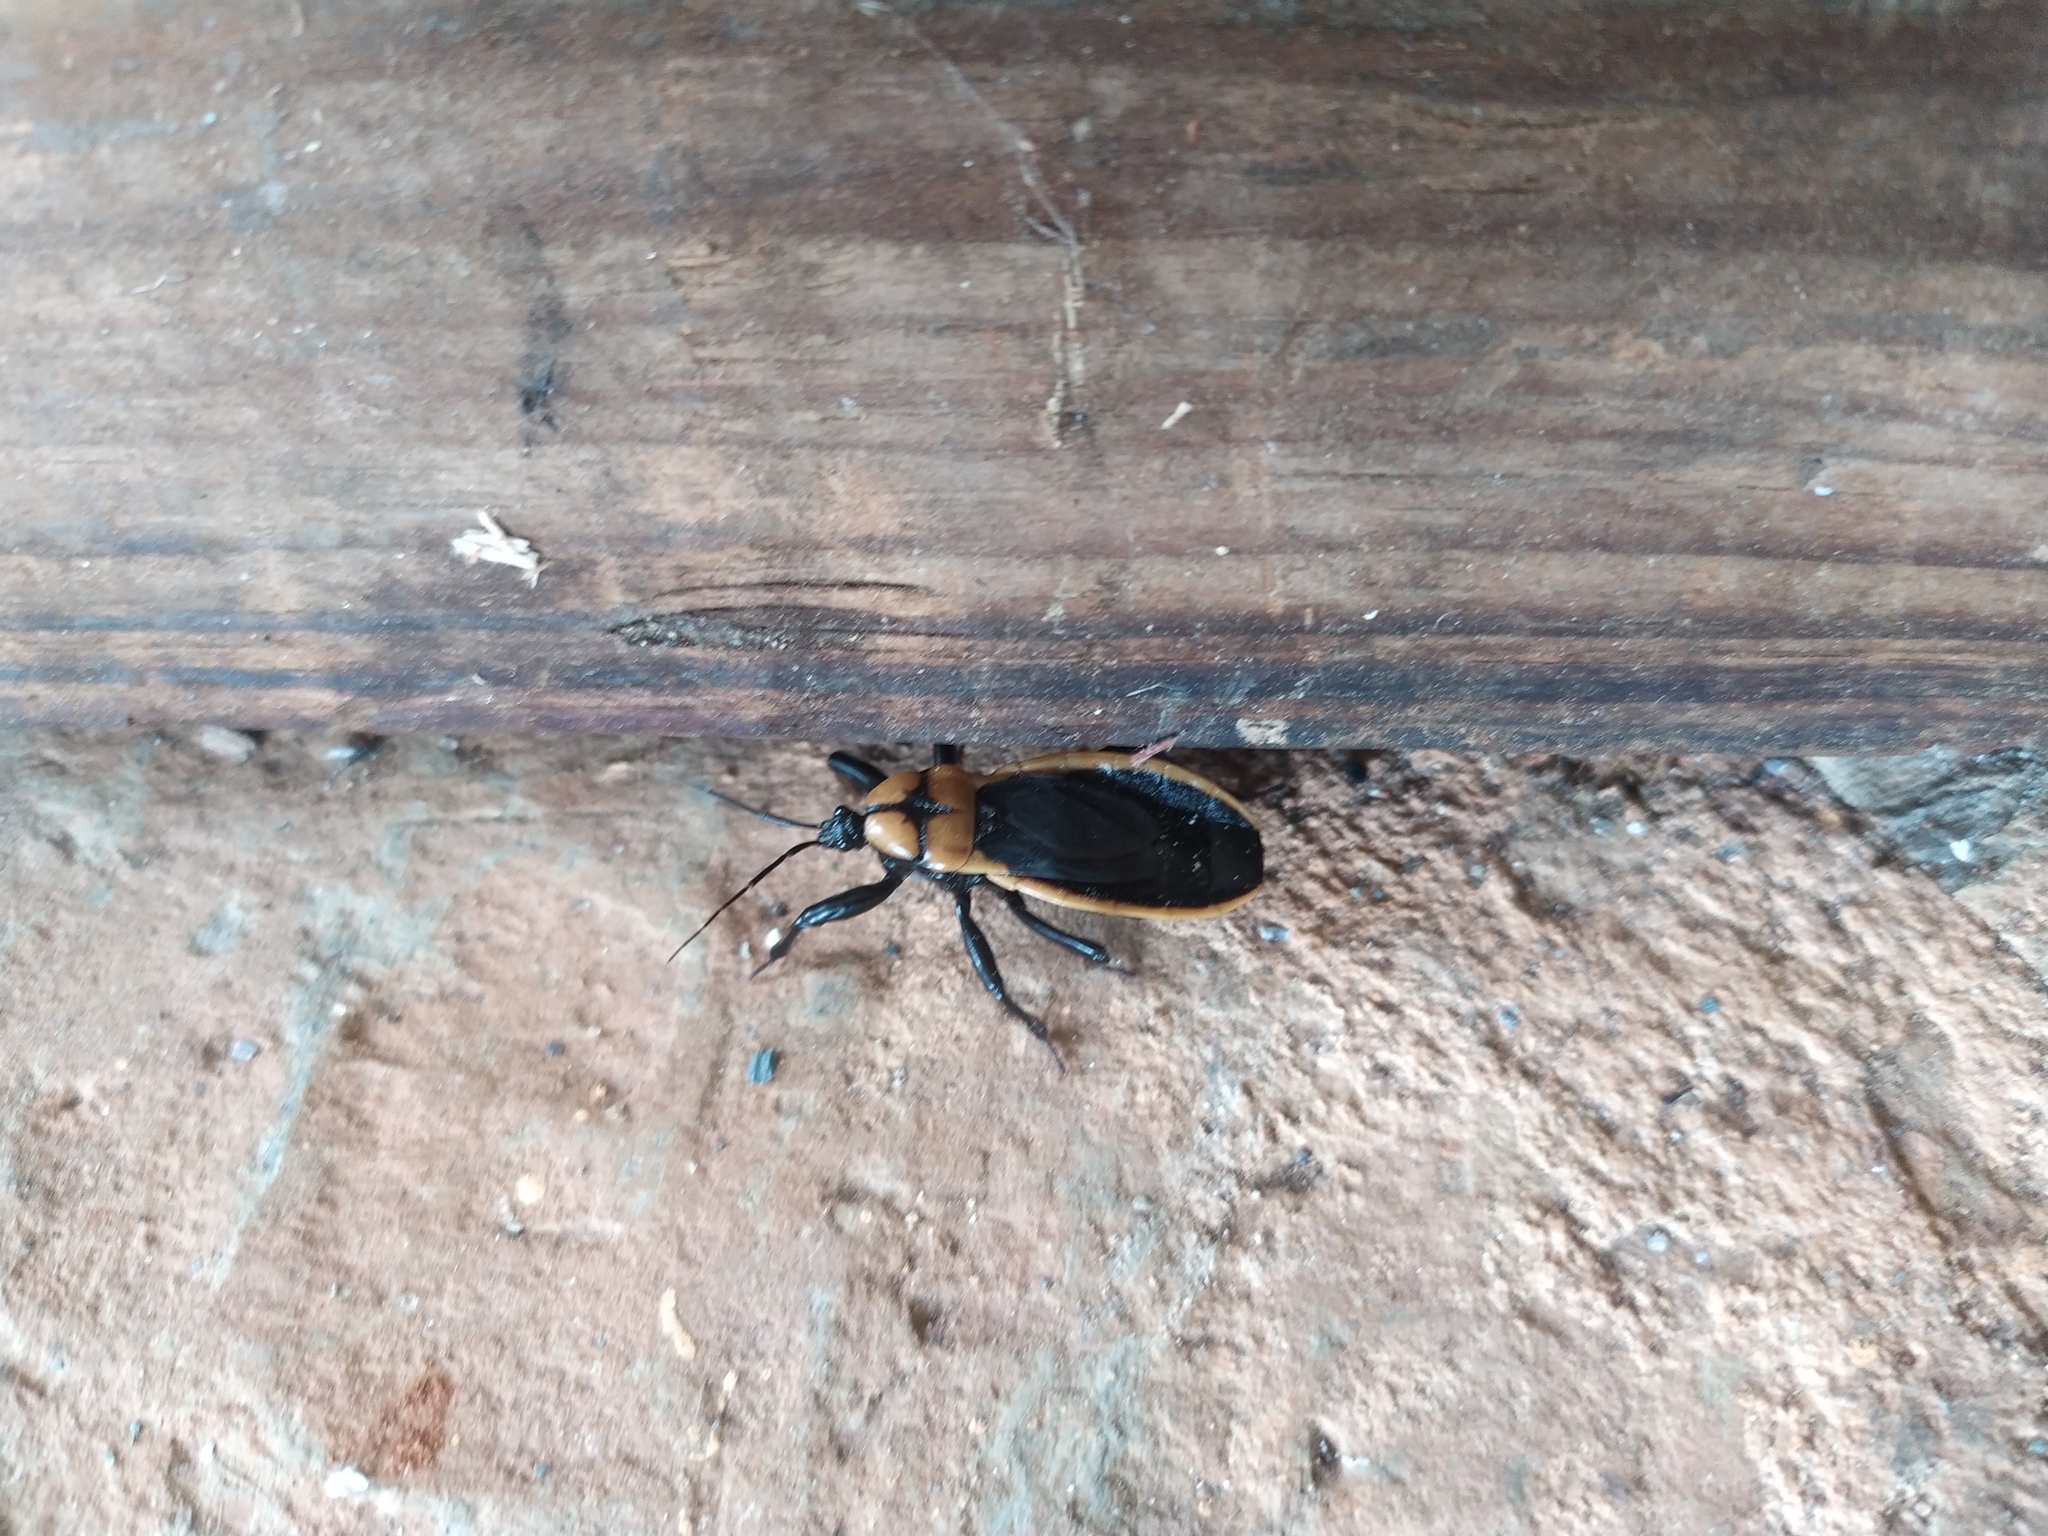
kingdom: Animalia
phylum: Arthropoda
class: Insecta
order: Hemiptera
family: Reduviidae
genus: Ectrichodia
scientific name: Ectrichodia crux
